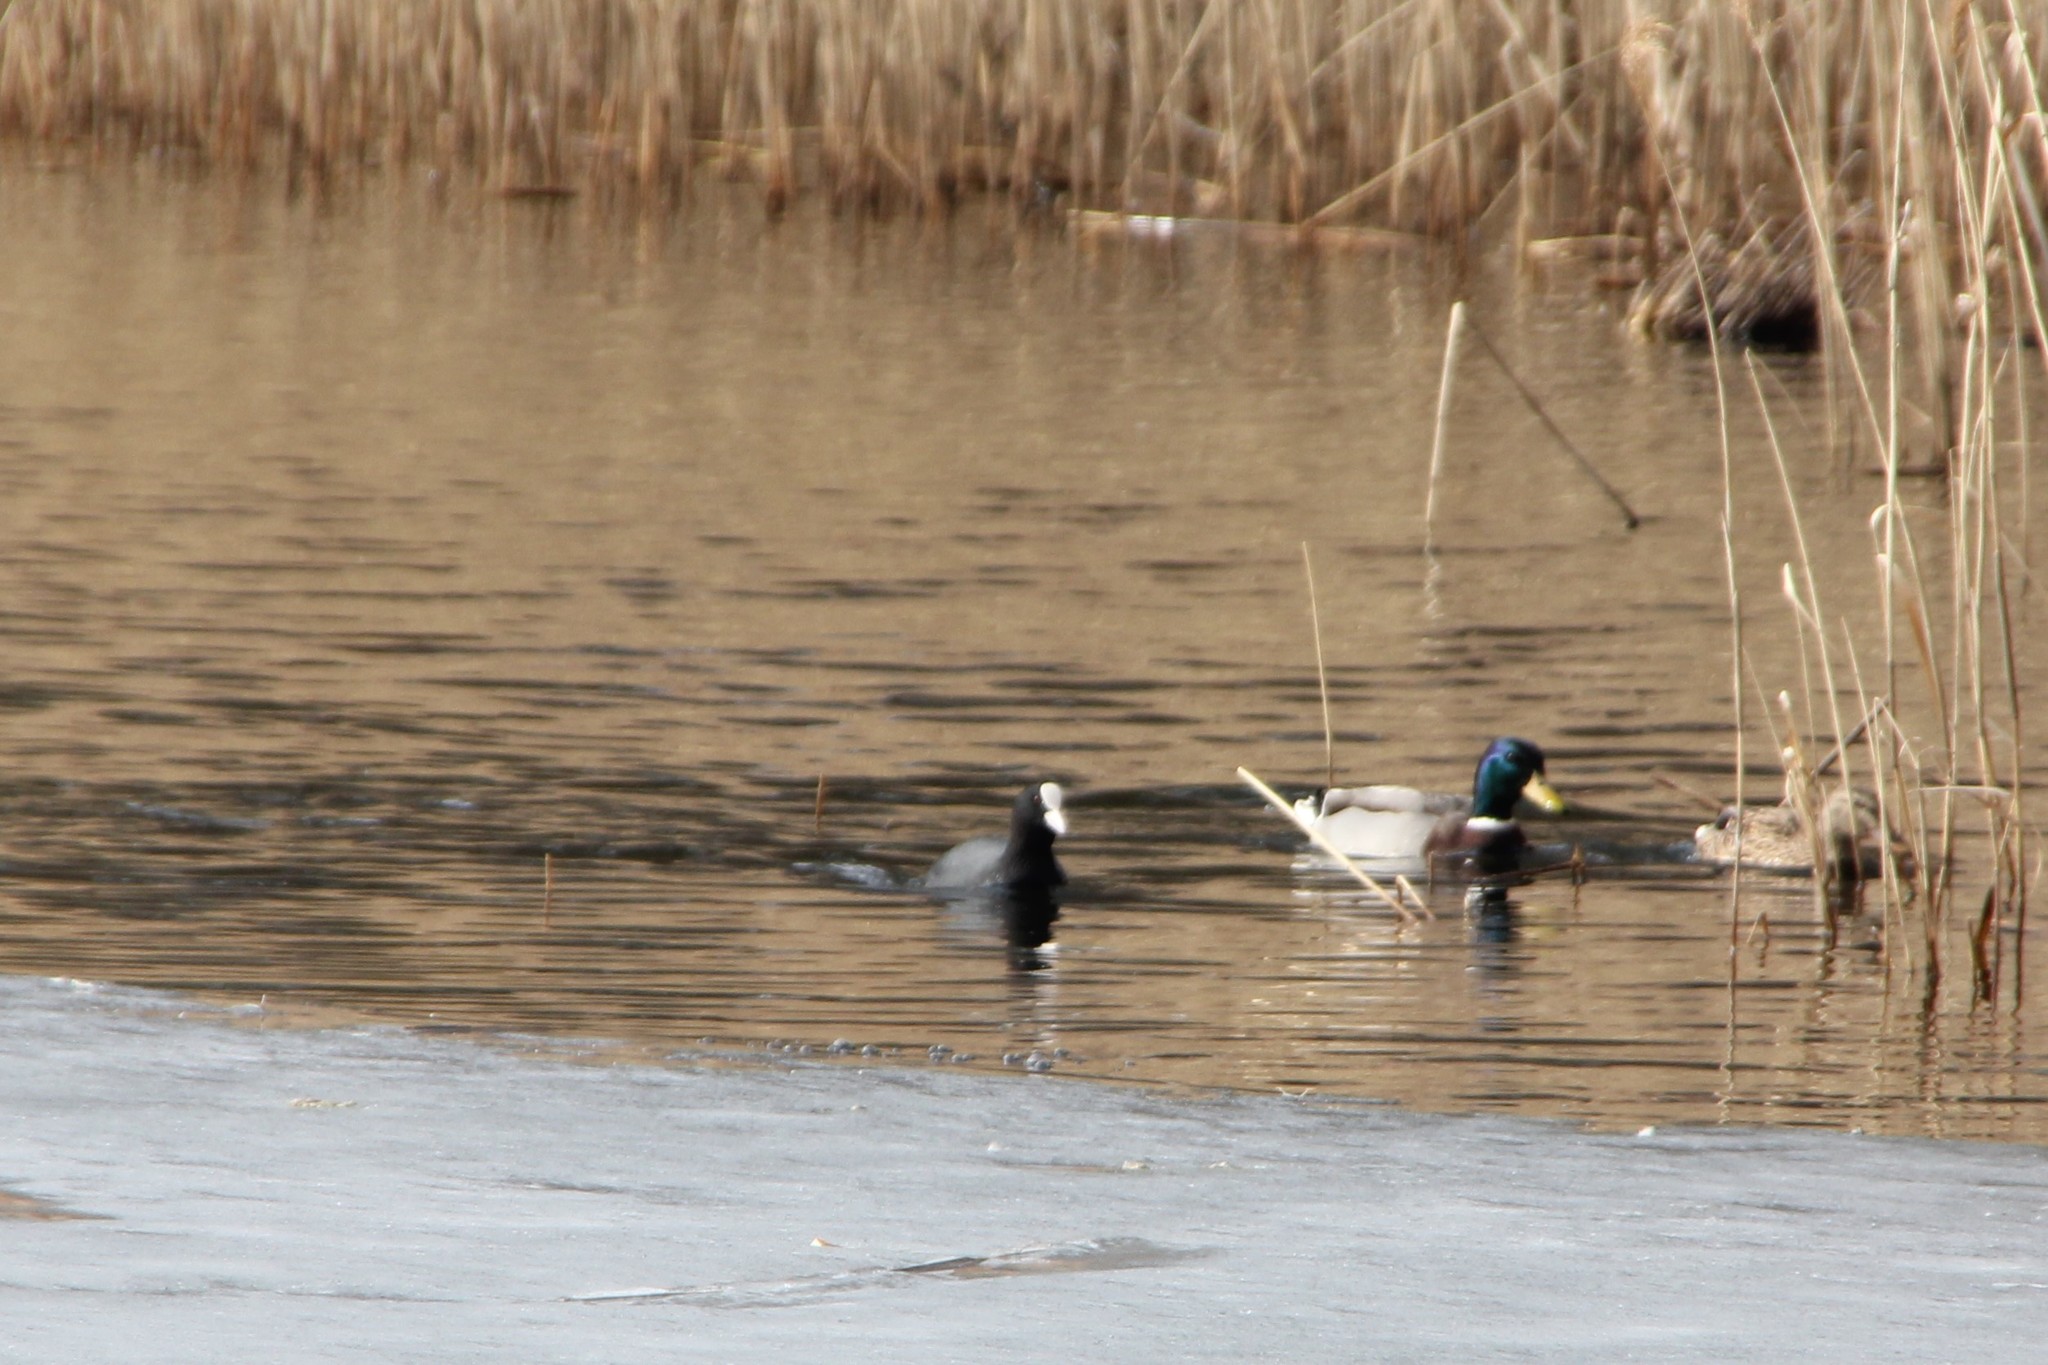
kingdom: Animalia
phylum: Chordata
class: Aves
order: Anseriformes
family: Anatidae
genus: Anas
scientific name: Anas platyrhynchos
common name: Mallard
